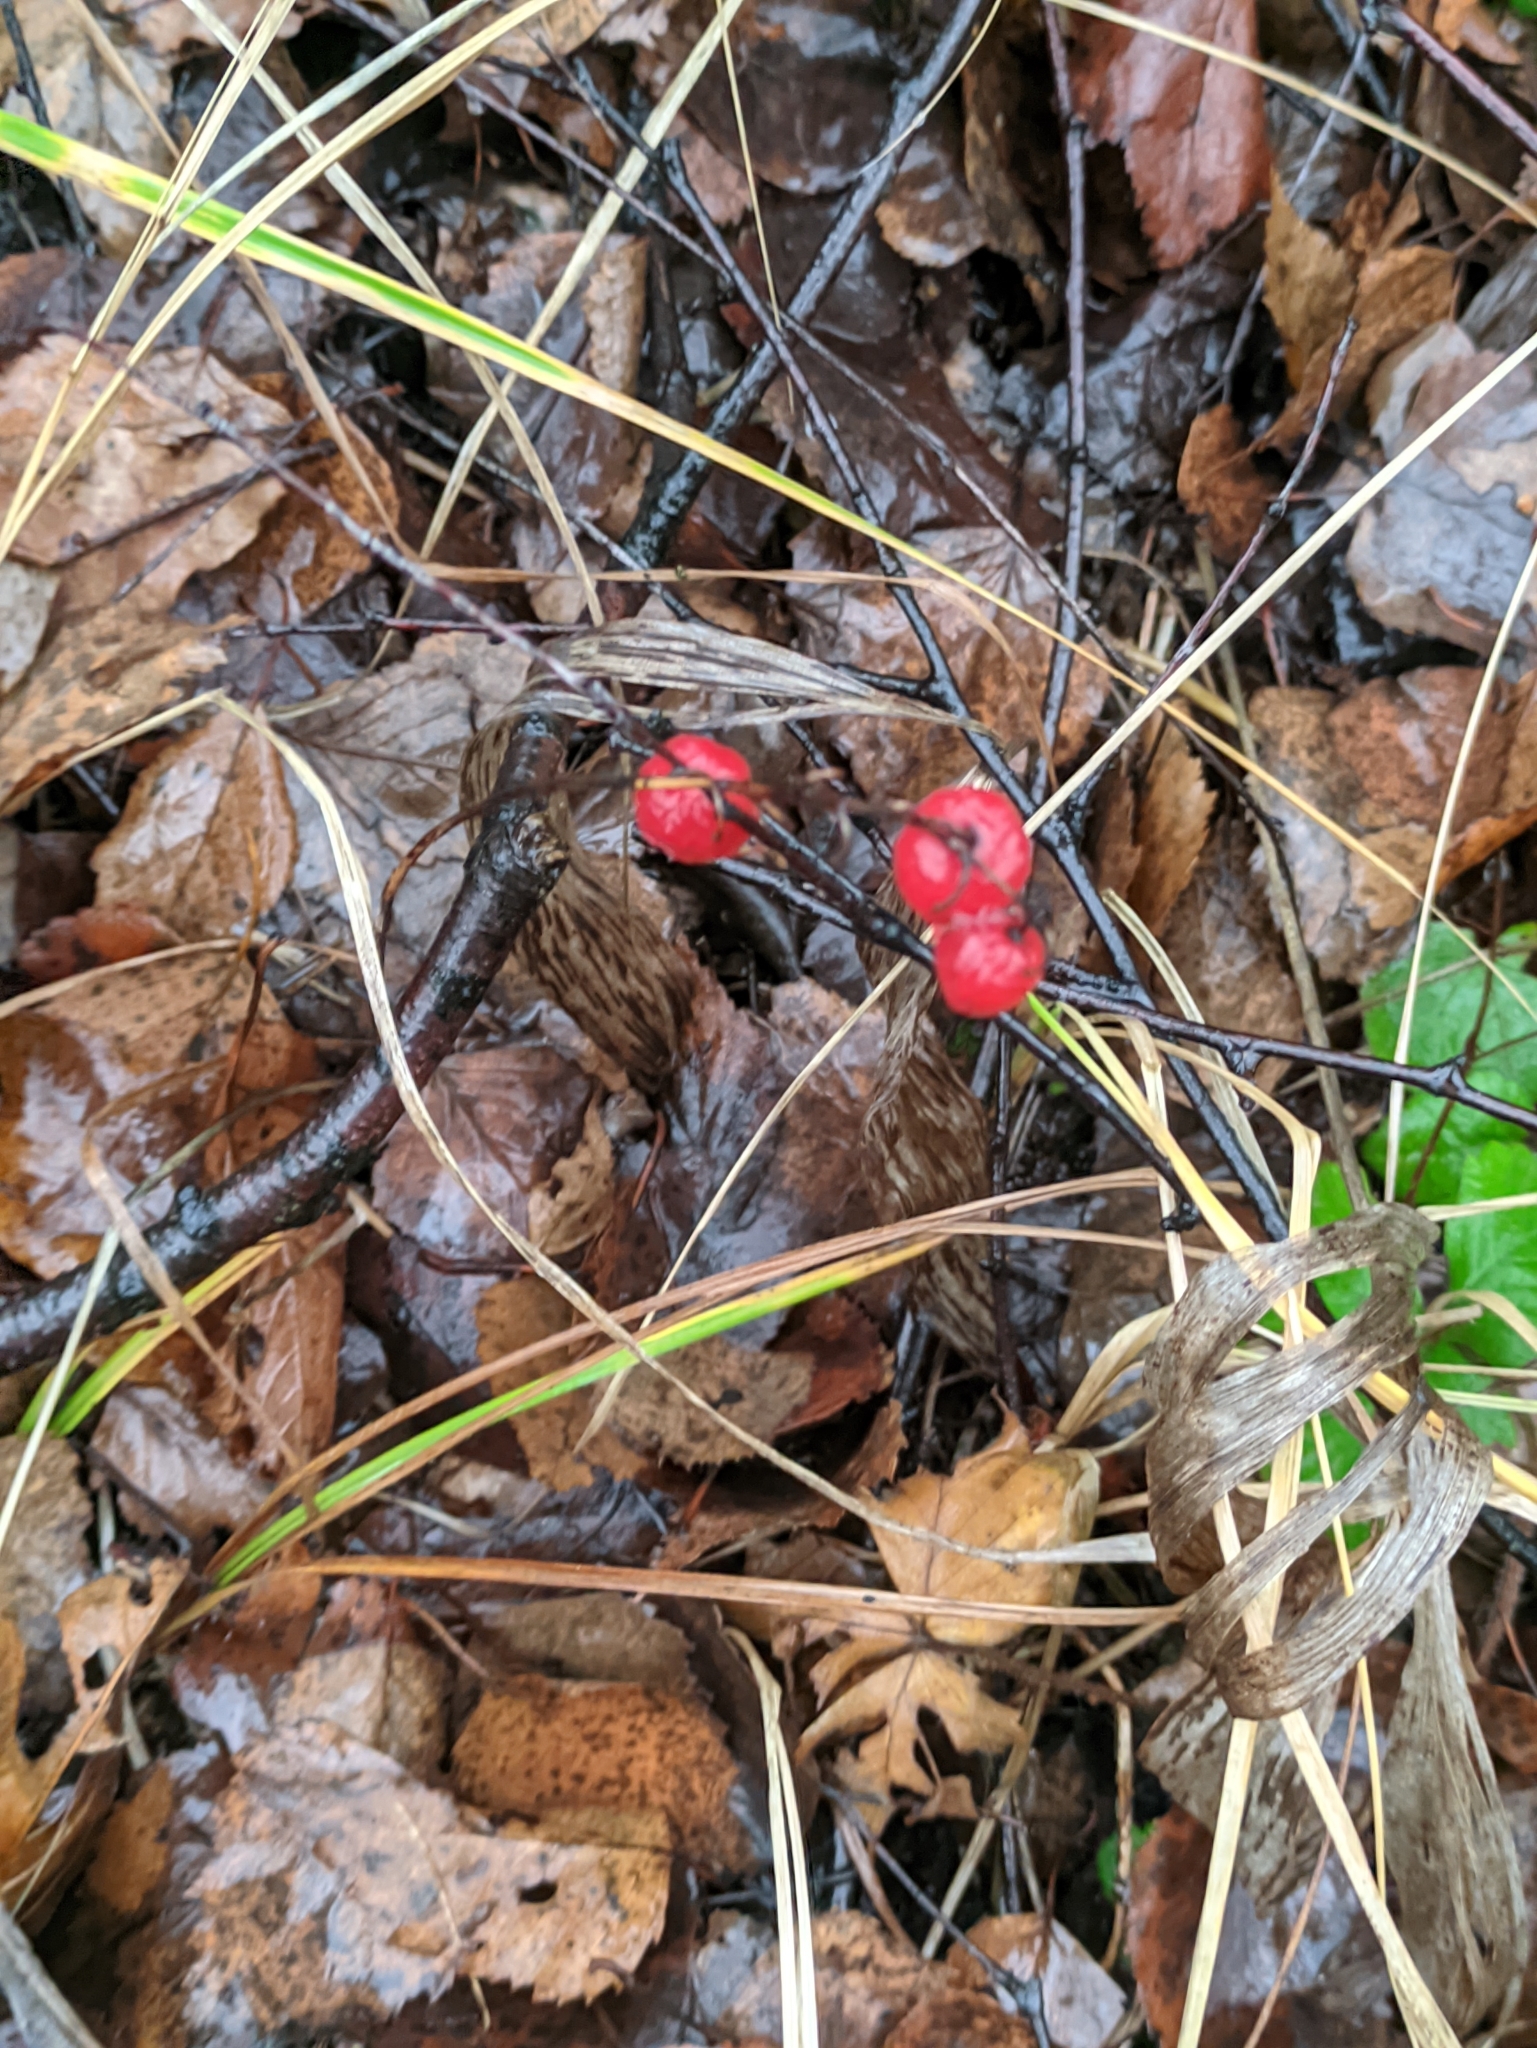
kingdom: Plantae
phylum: Tracheophyta
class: Liliopsida
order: Asparagales
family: Asparagaceae
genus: Convallaria
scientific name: Convallaria majalis
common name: Lily-of-the-valley
